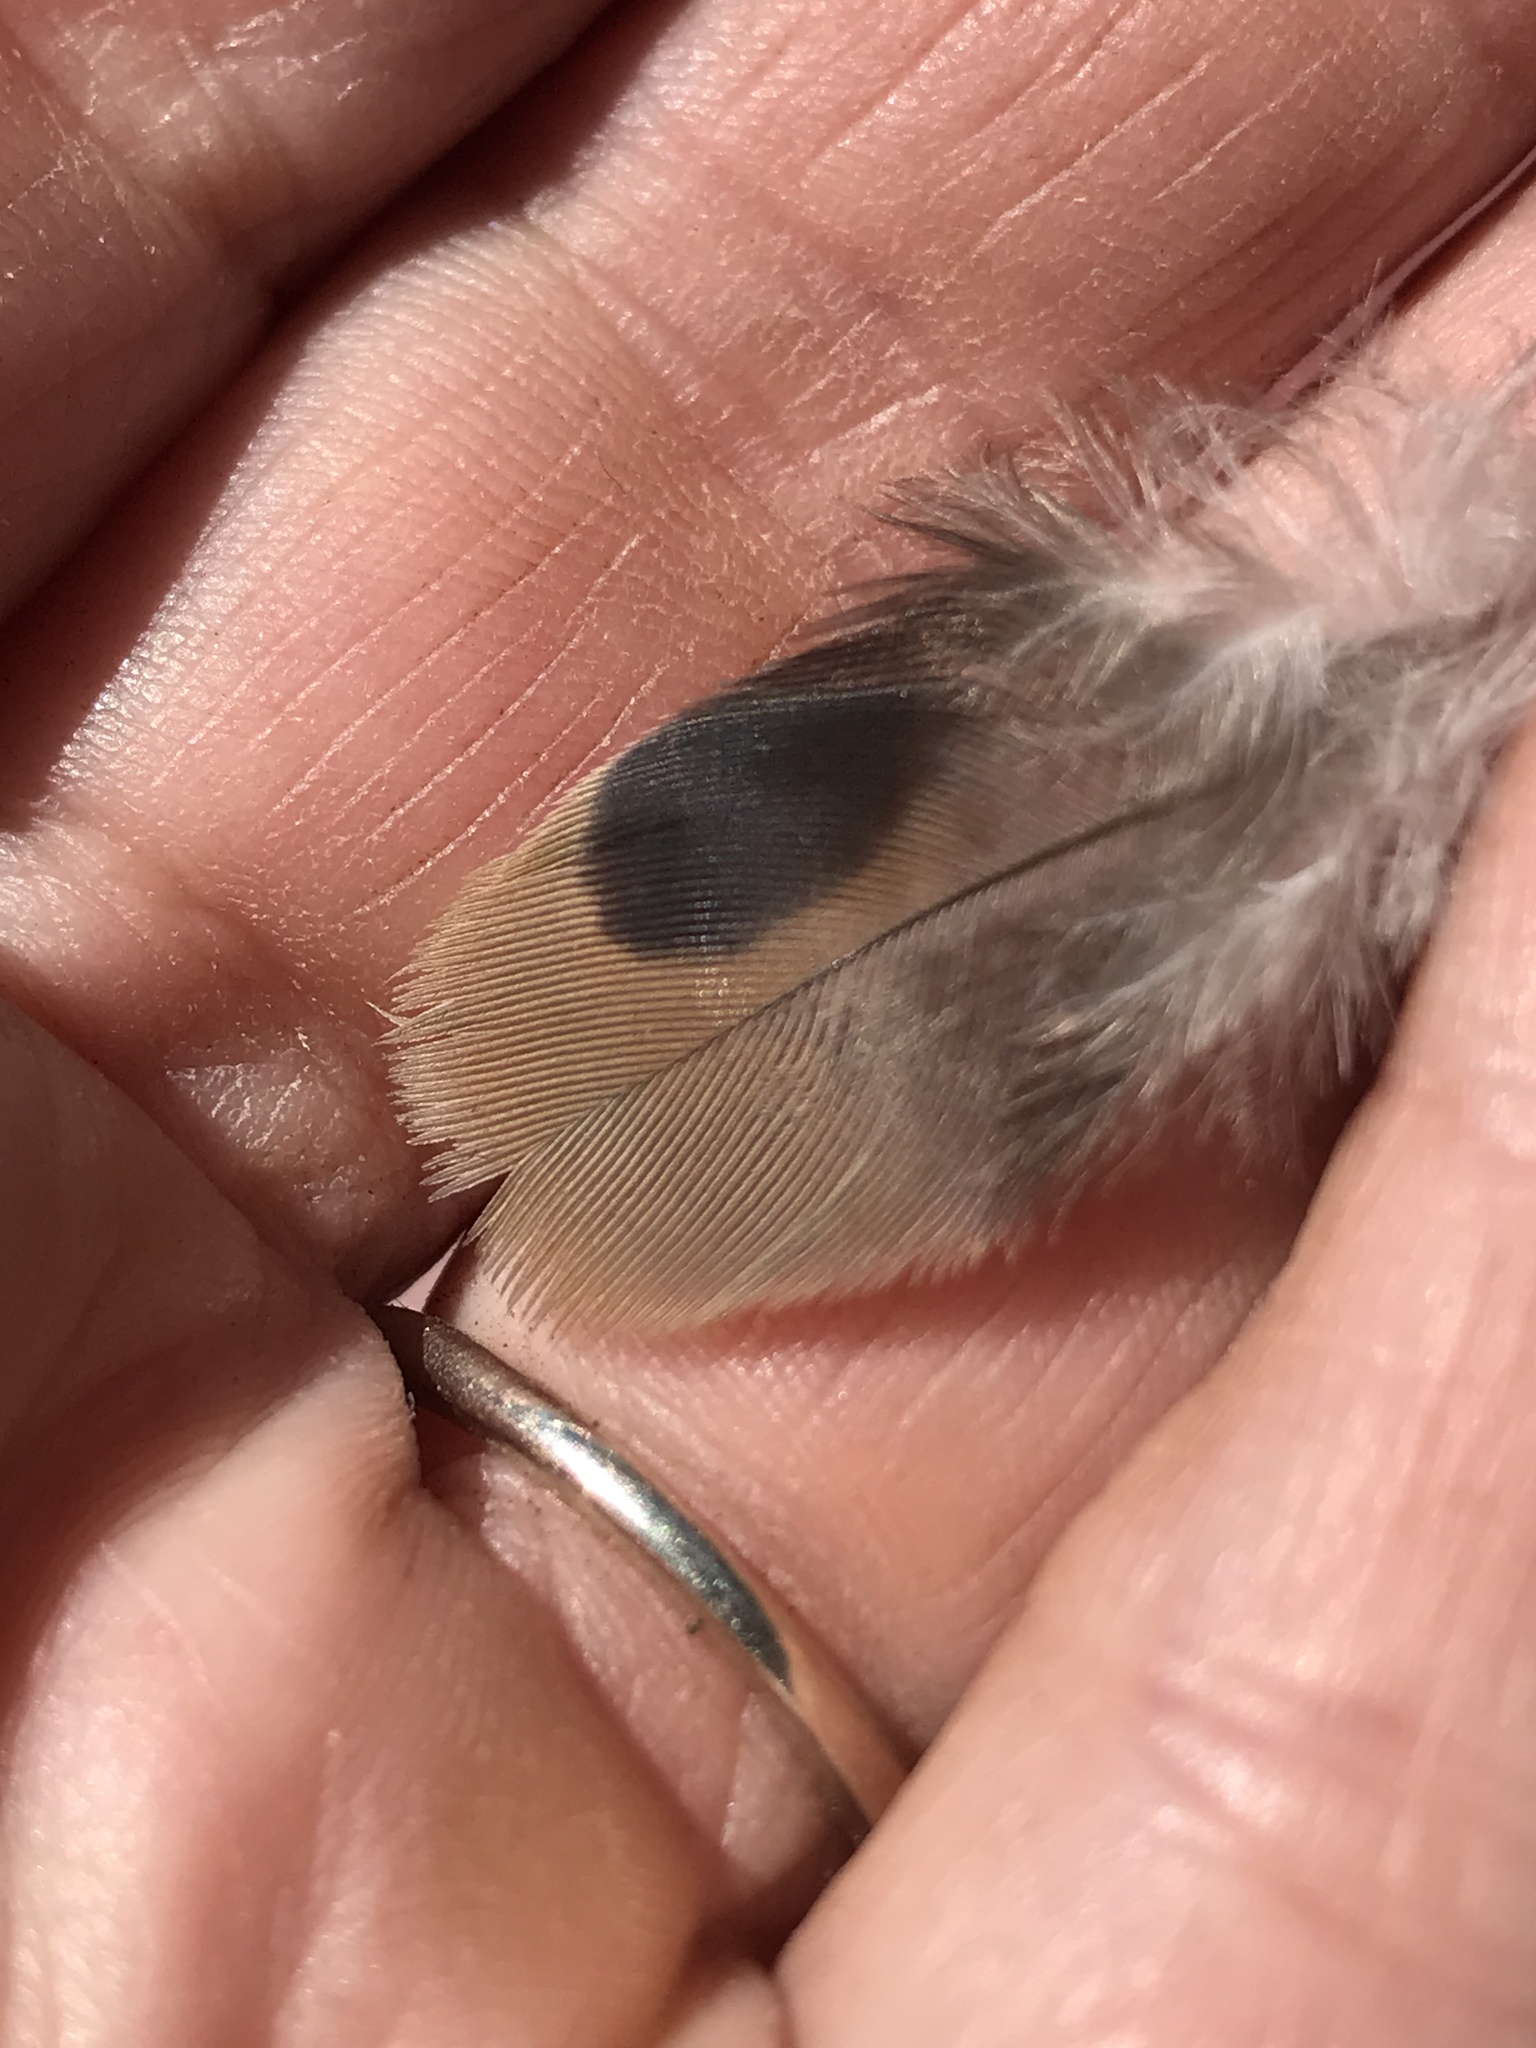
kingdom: Animalia
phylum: Chordata
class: Aves
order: Columbiformes
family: Columbidae
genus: Zenaida
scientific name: Zenaida macroura
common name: Mourning dove
